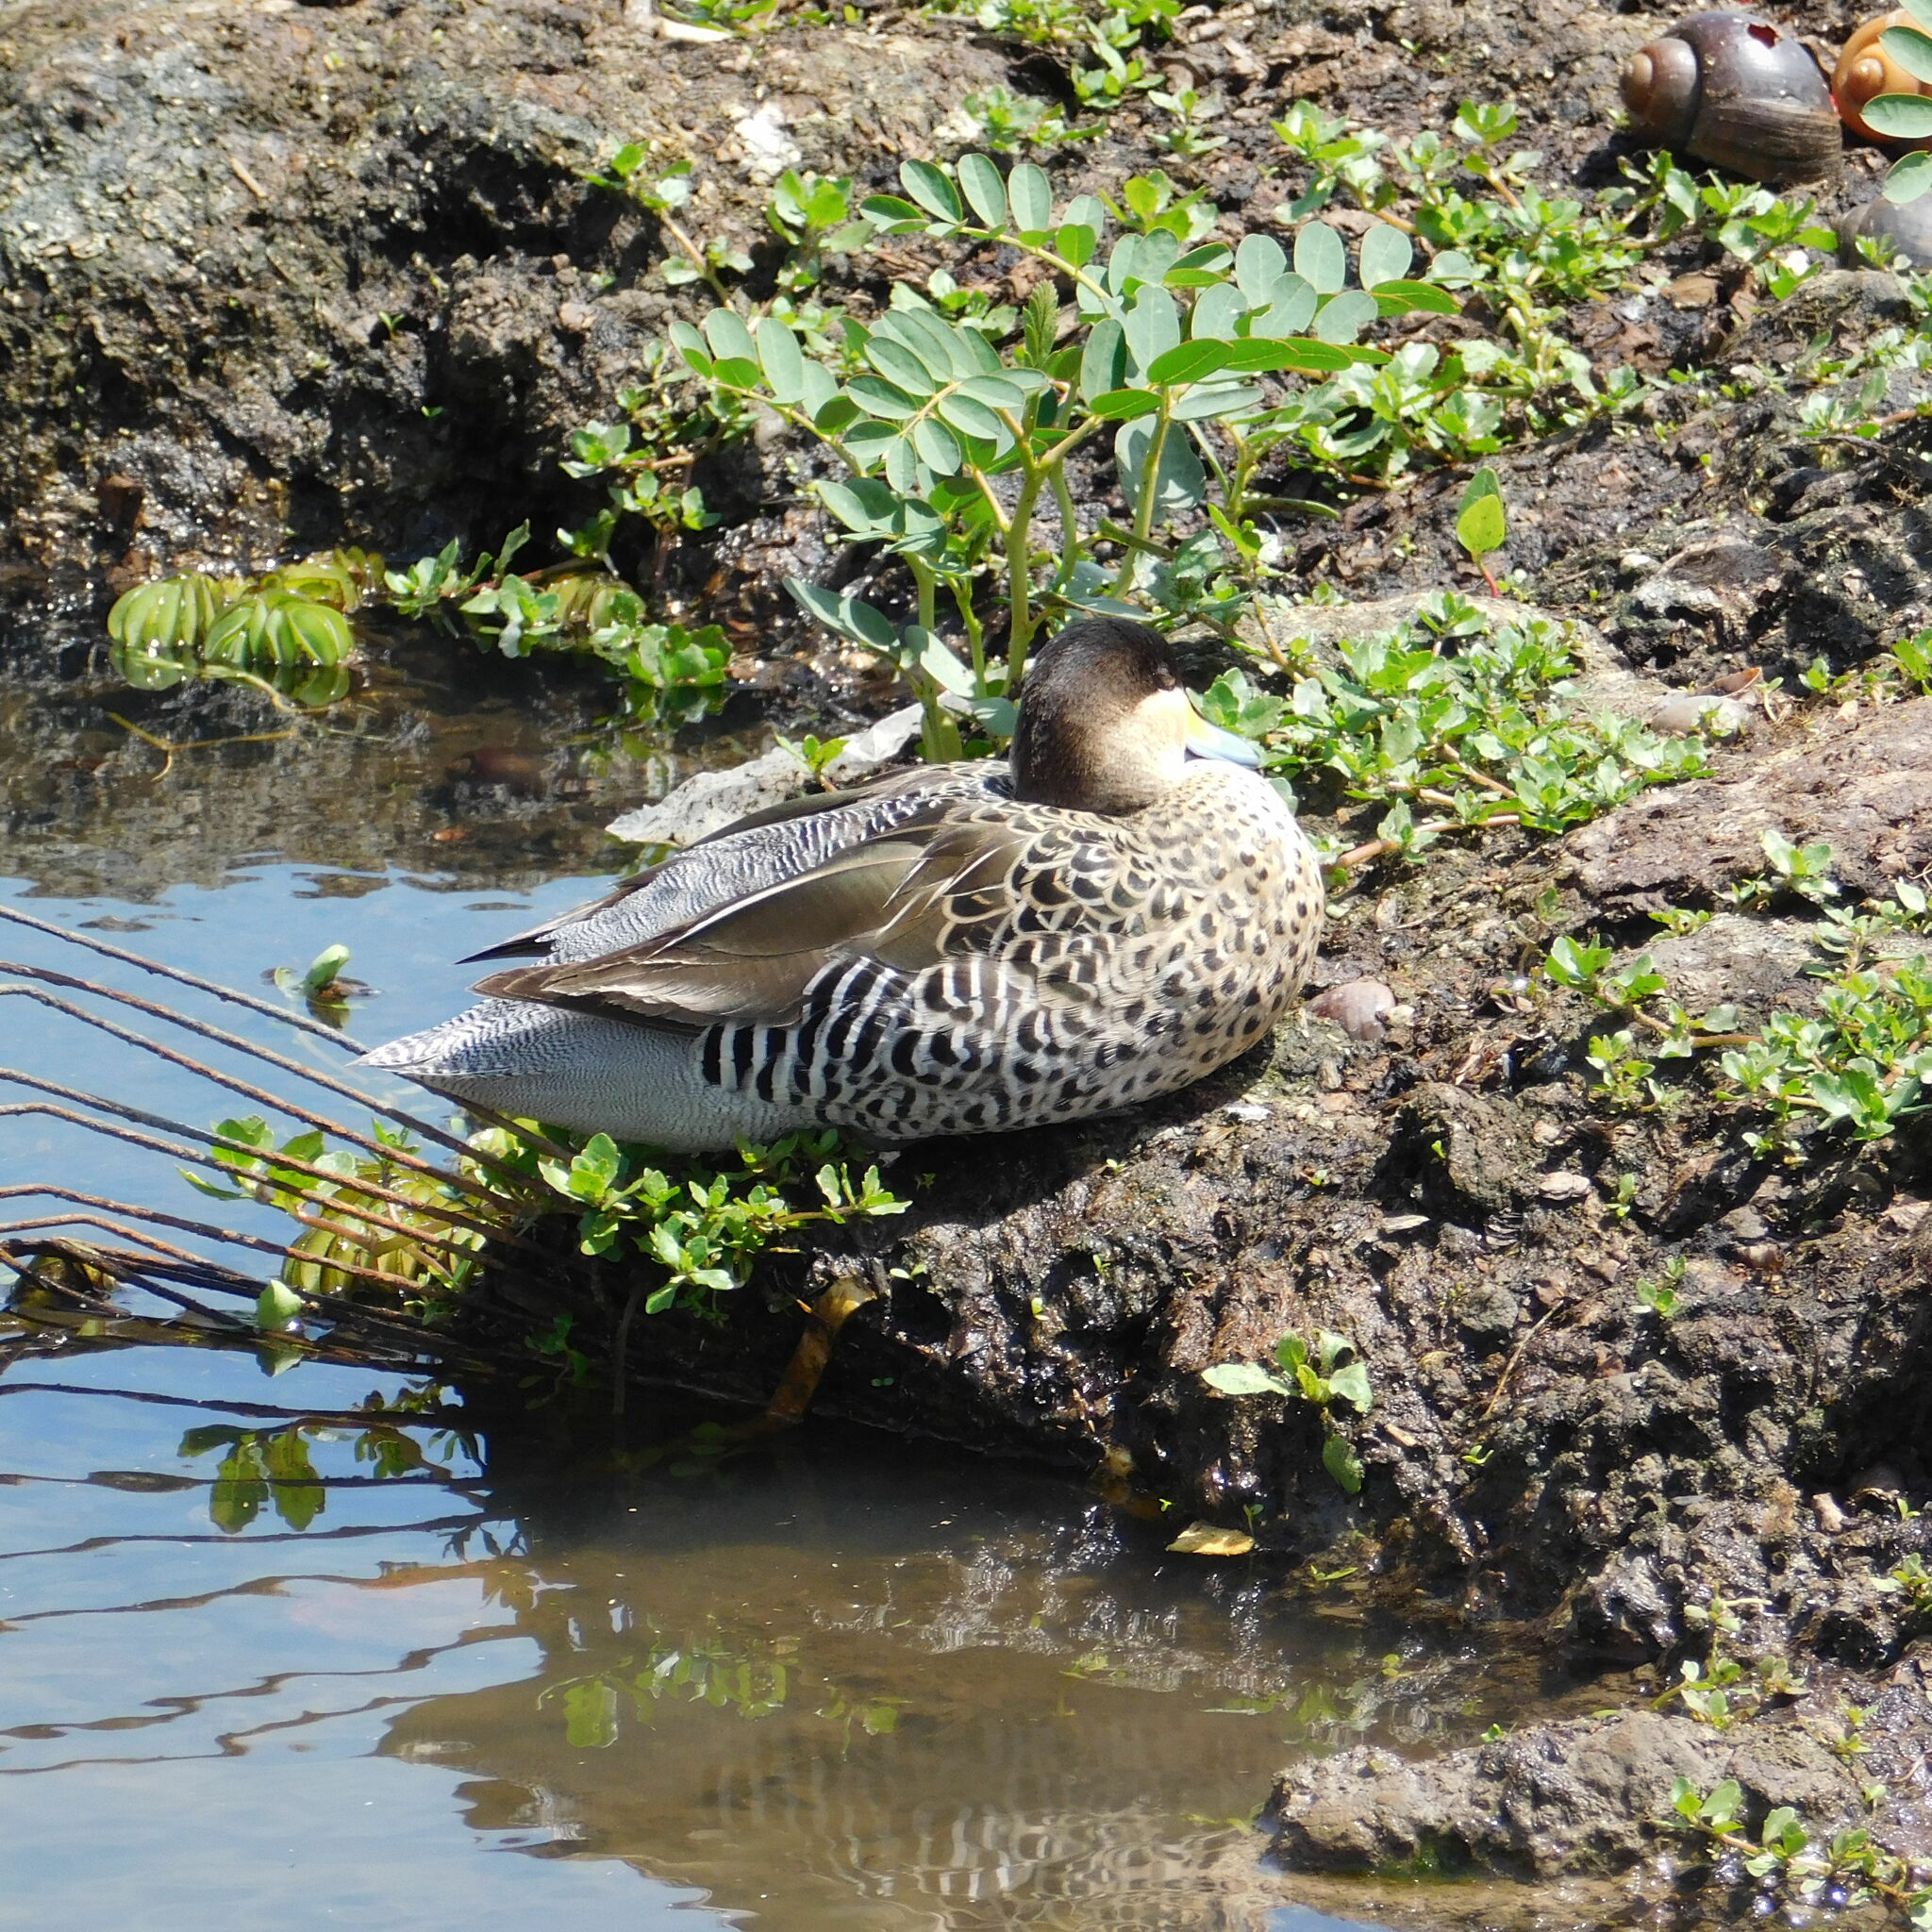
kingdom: Animalia
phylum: Chordata
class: Aves
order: Anseriformes
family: Anatidae
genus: Spatula
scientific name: Spatula versicolor
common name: Silver teal
